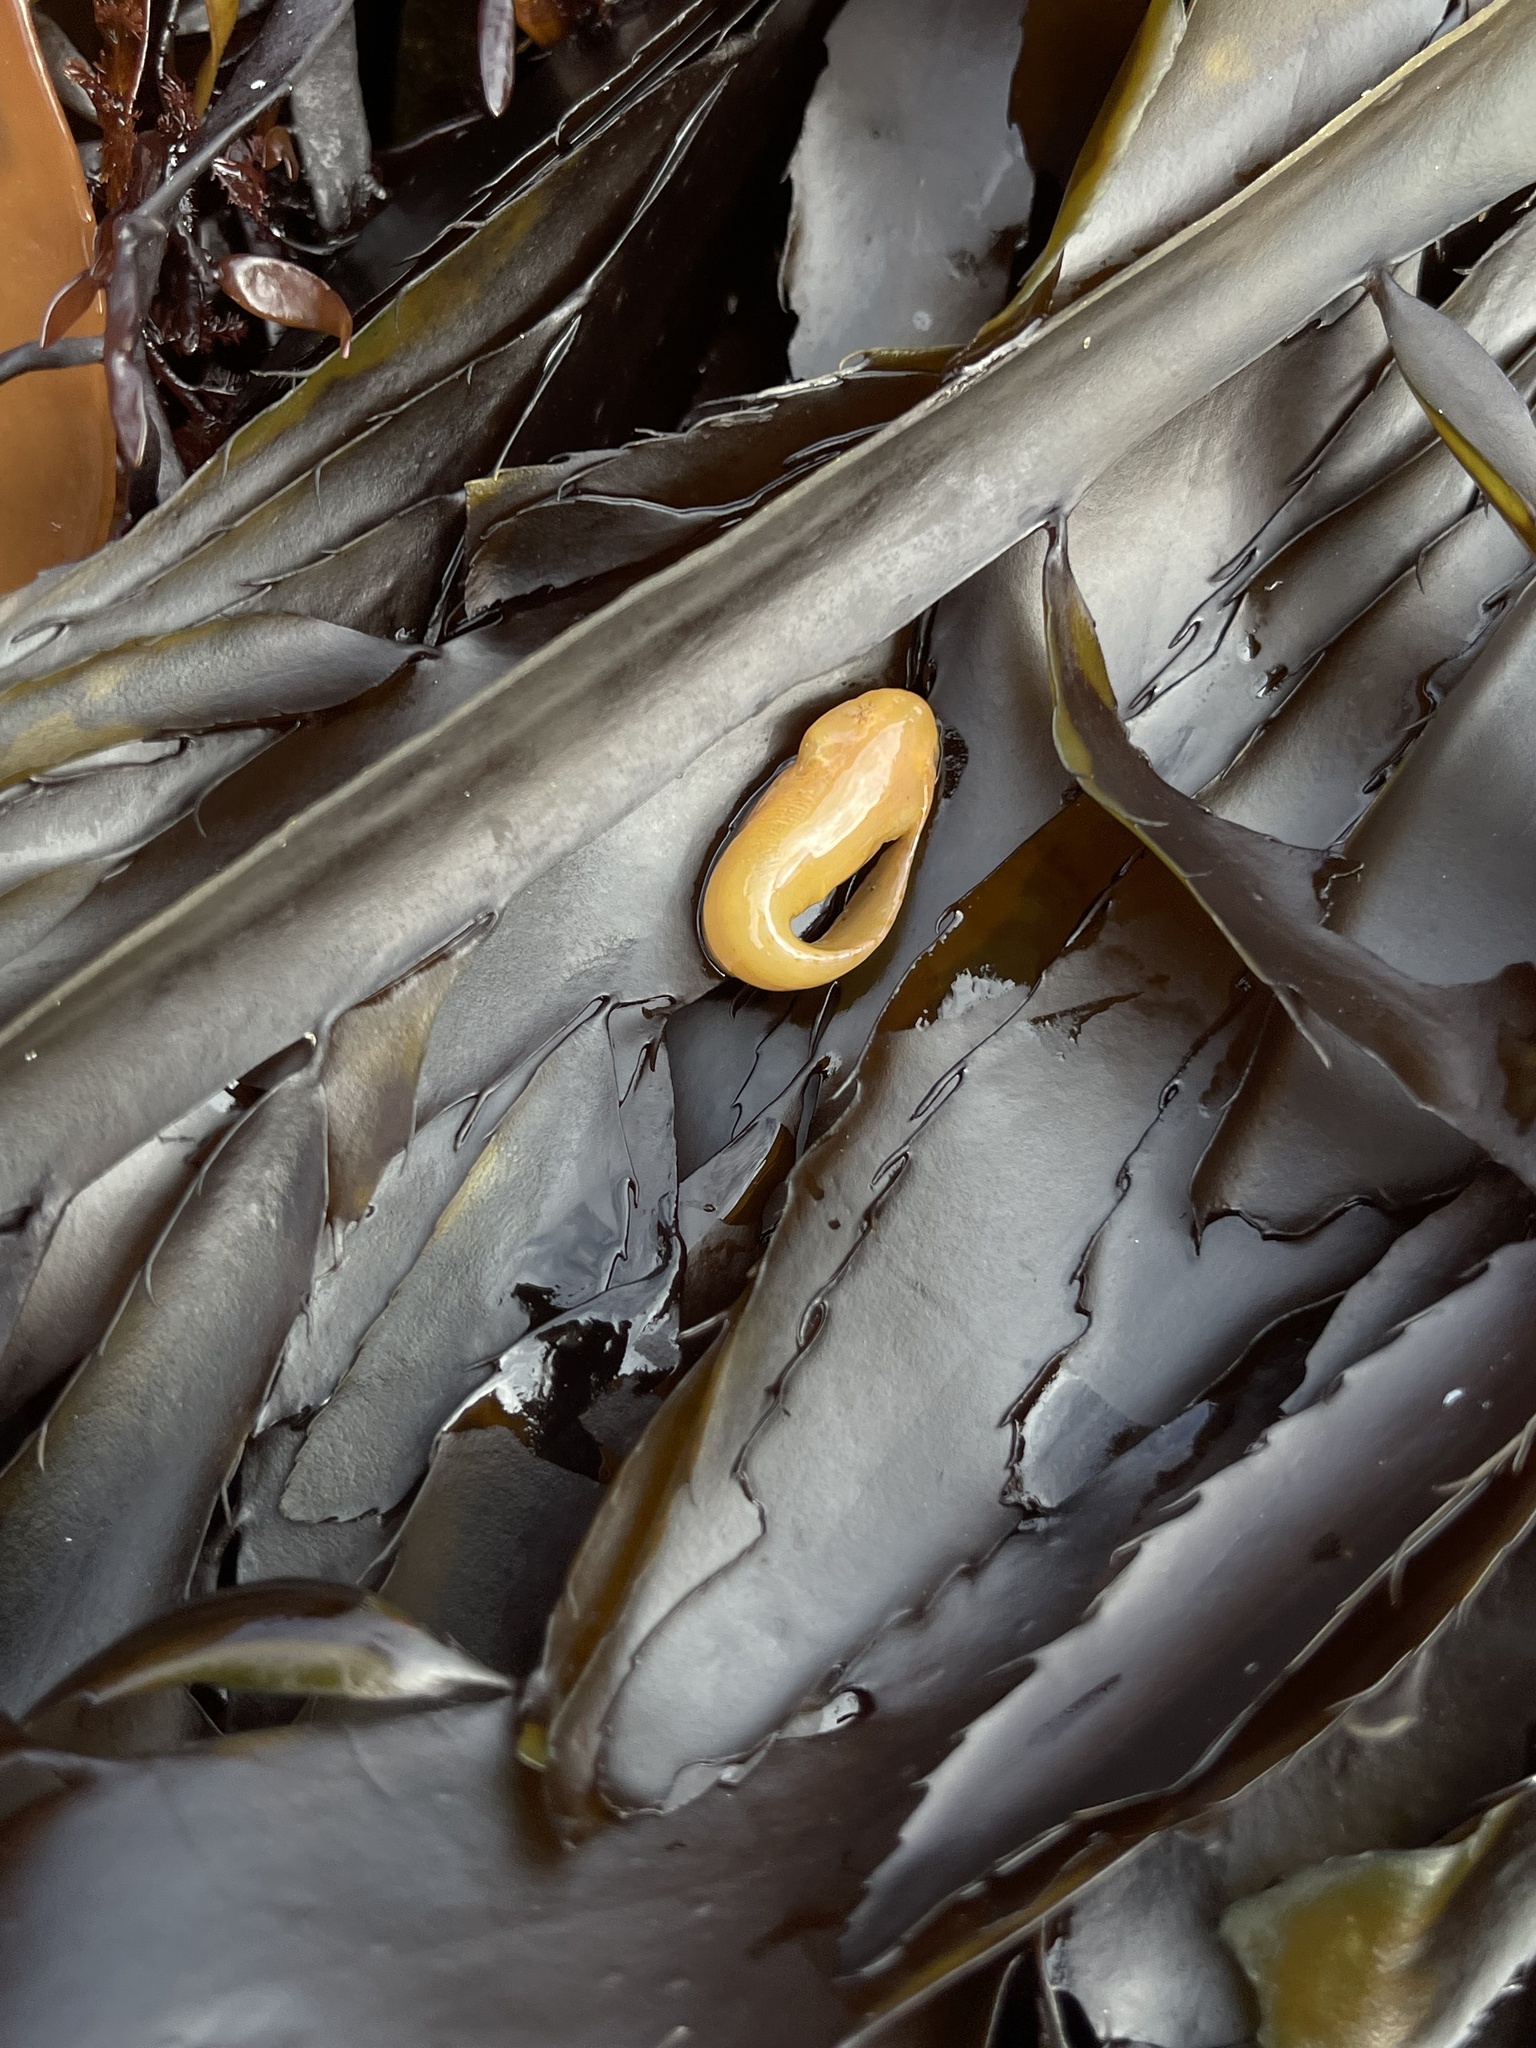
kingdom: Animalia
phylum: Chordata
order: Scorpaeniformes
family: Liparidae
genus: Liparis
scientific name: Liparis florae
